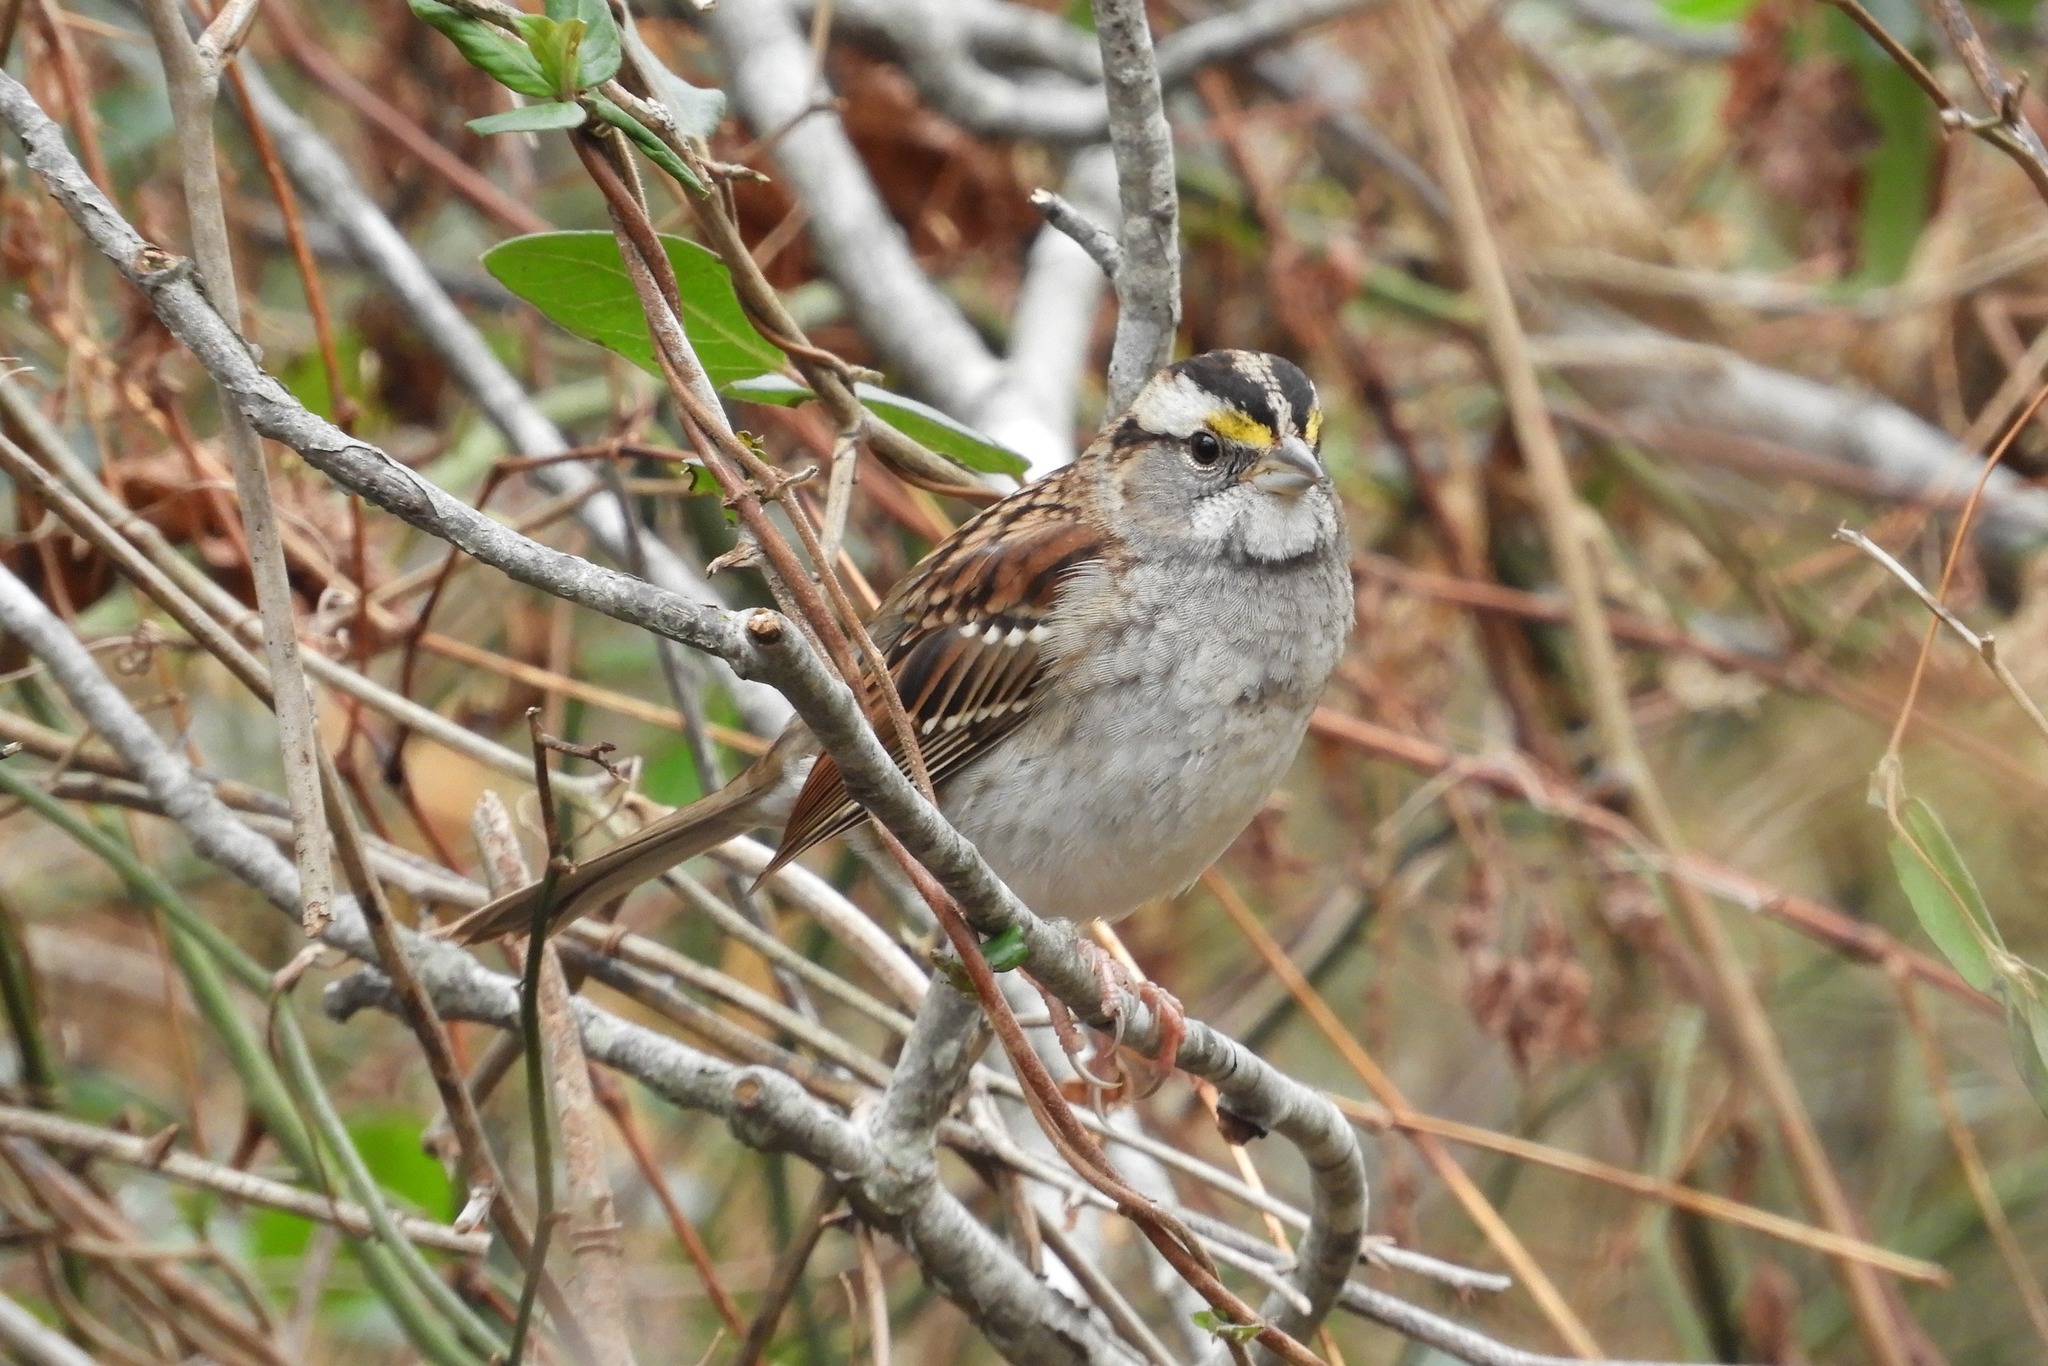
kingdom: Animalia
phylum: Chordata
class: Aves
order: Passeriformes
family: Passerellidae
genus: Zonotrichia
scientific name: Zonotrichia albicollis
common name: White-throated sparrow
